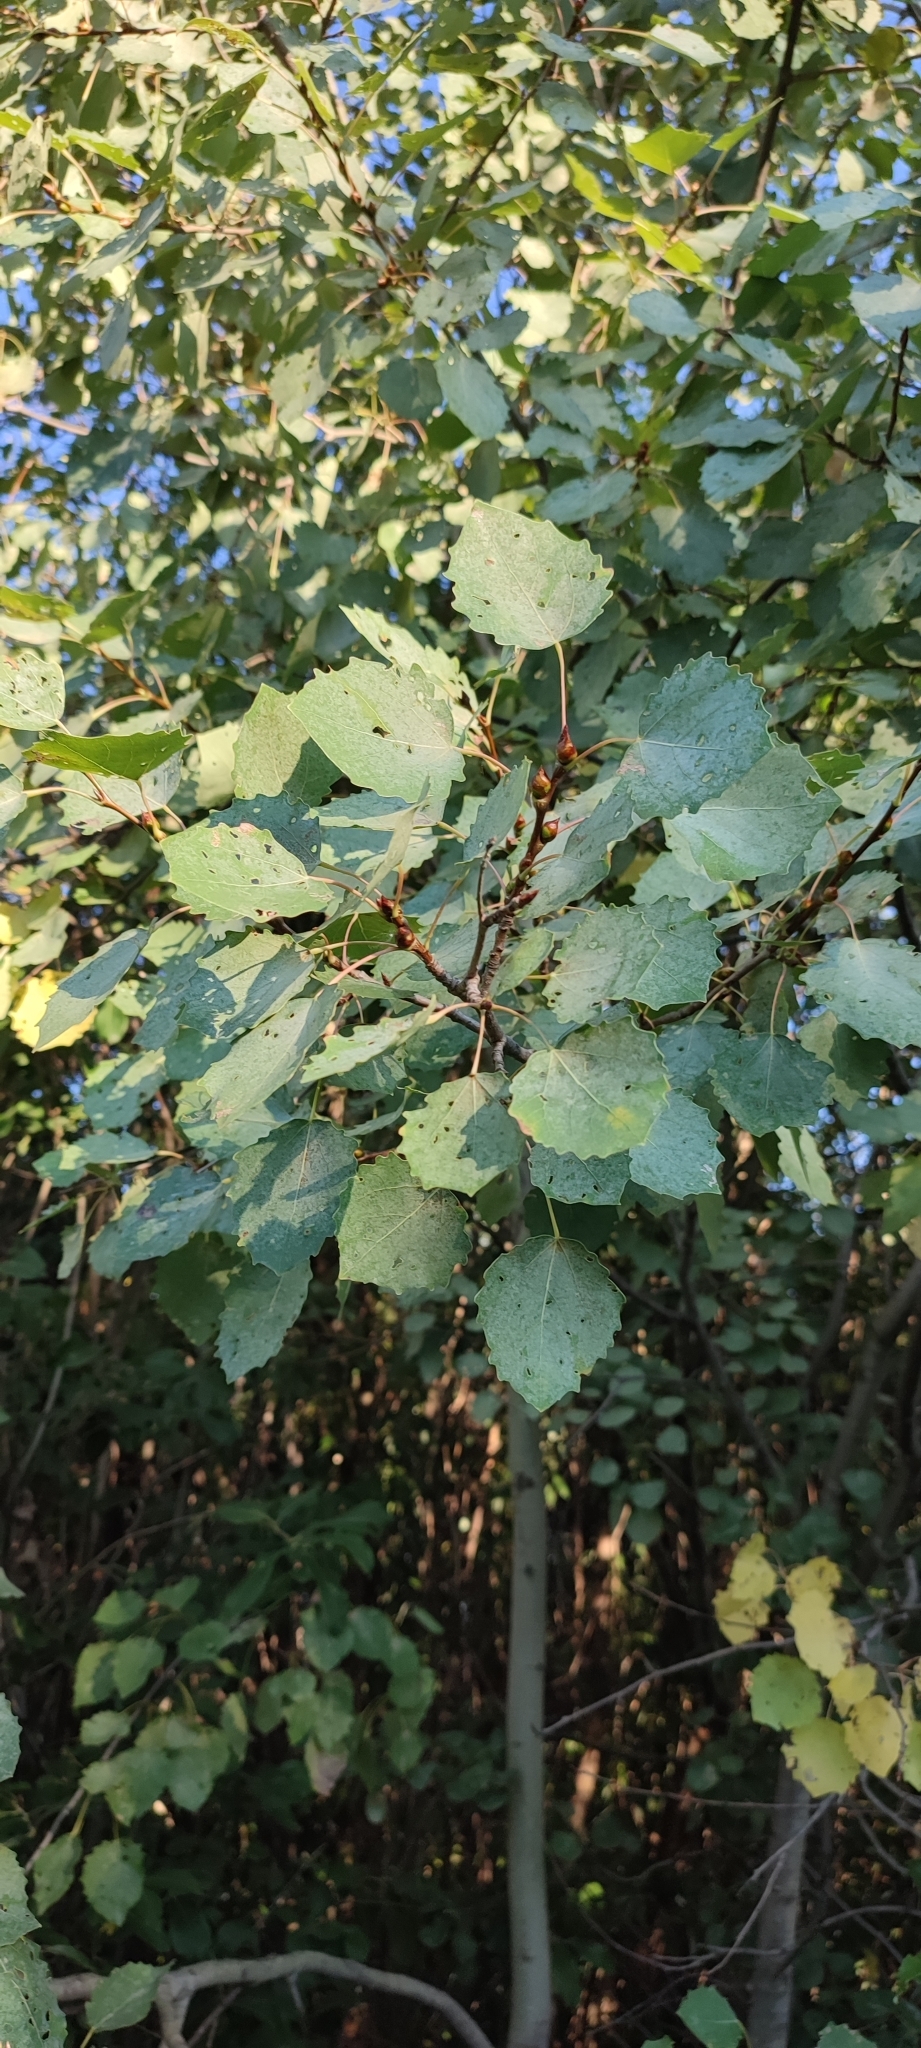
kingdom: Plantae
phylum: Tracheophyta
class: Magnoliopsida
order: Malpighiales
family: Salicaceae
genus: Populus
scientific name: Populus tremula
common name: European aspen
